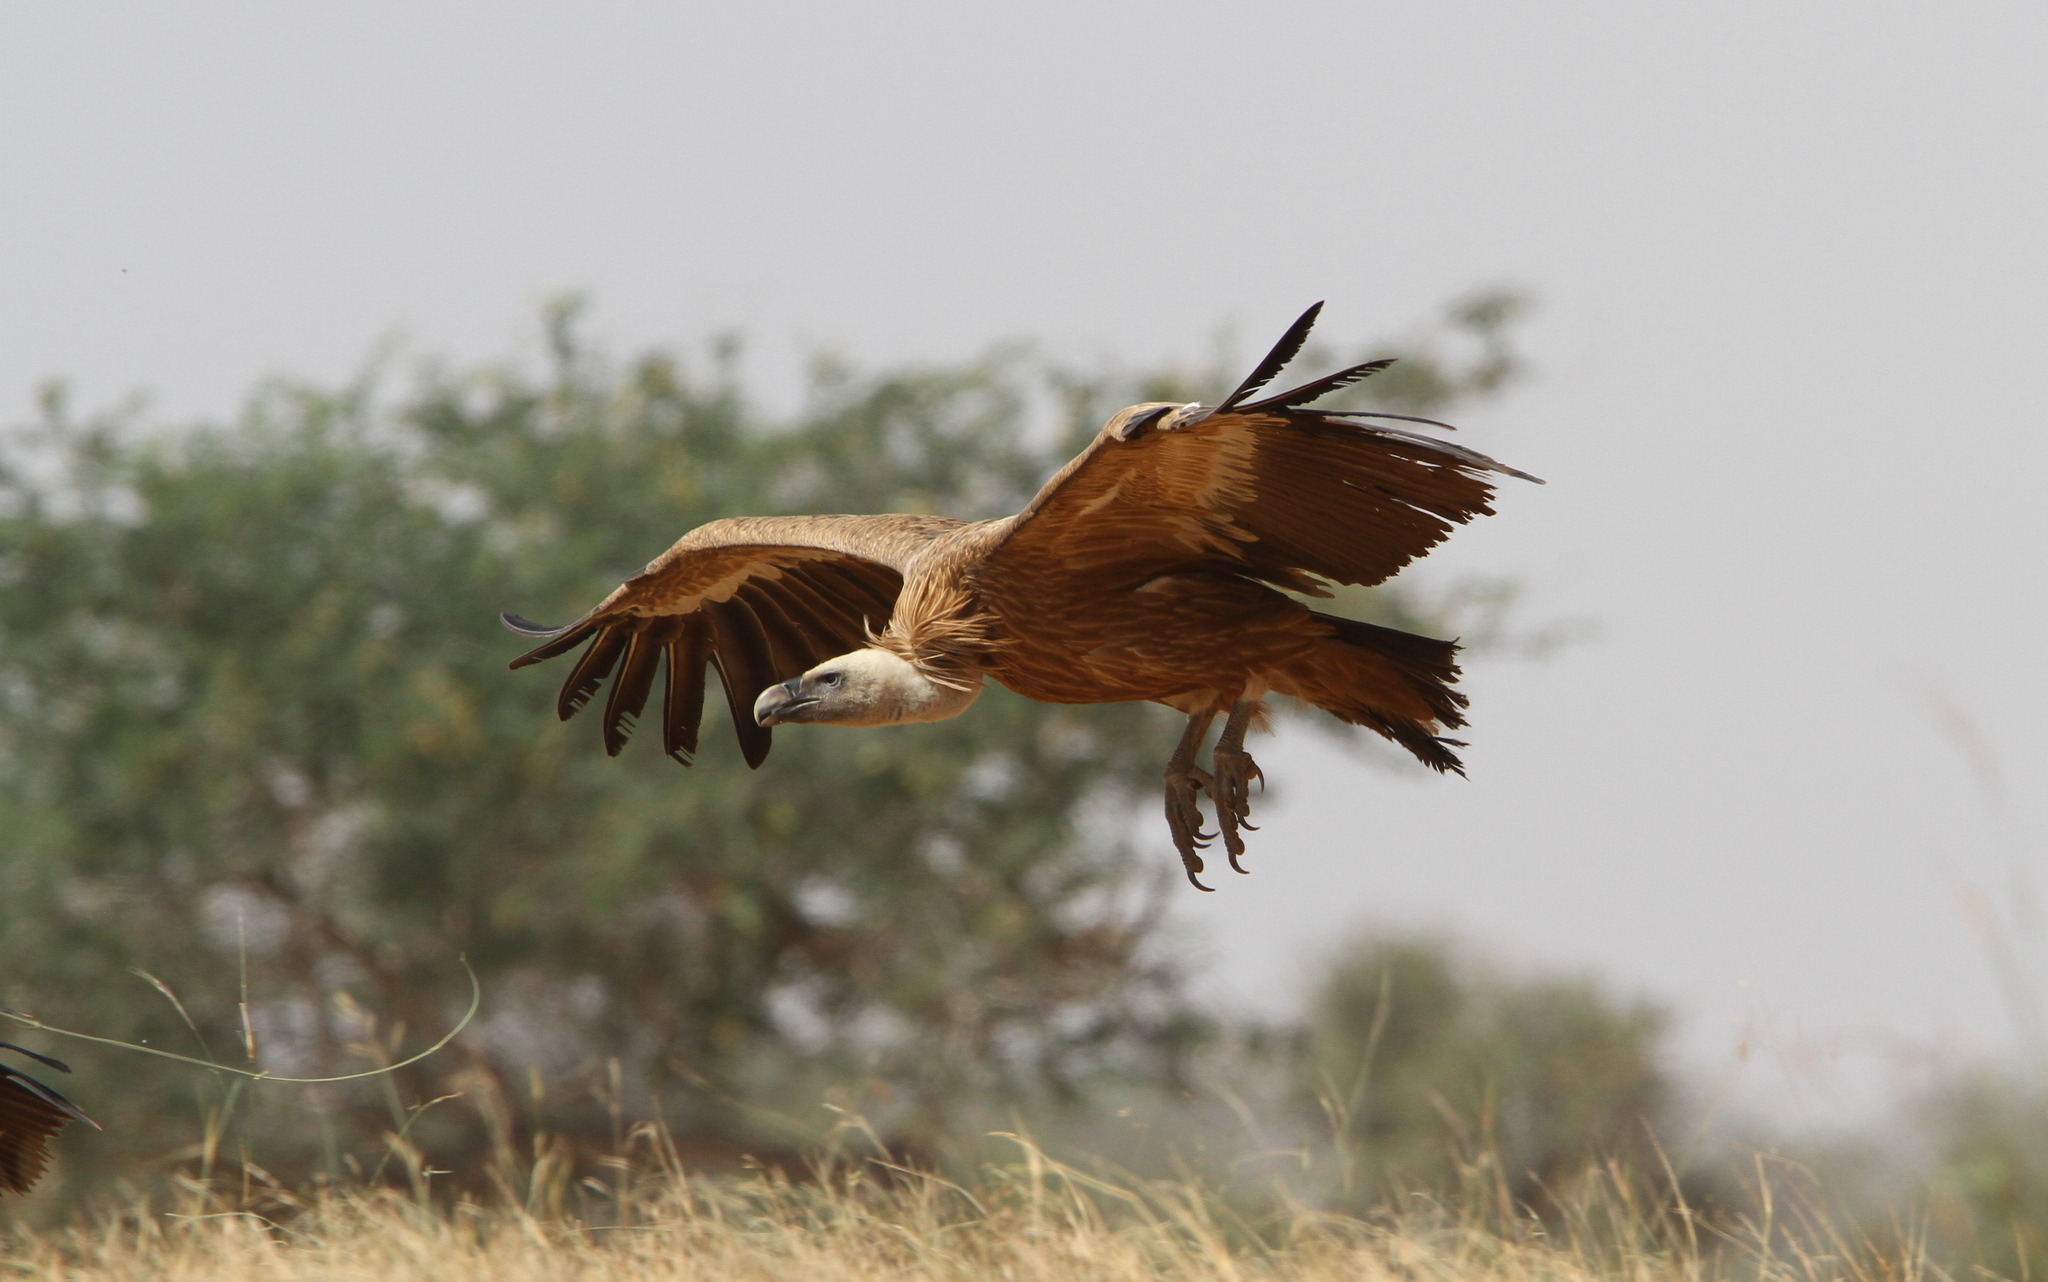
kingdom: Animalia
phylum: Chordata
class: Aves
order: Accipitriformes
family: Accipitridae
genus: Gyps
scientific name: Gyps fulvus
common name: Griffon vulture
